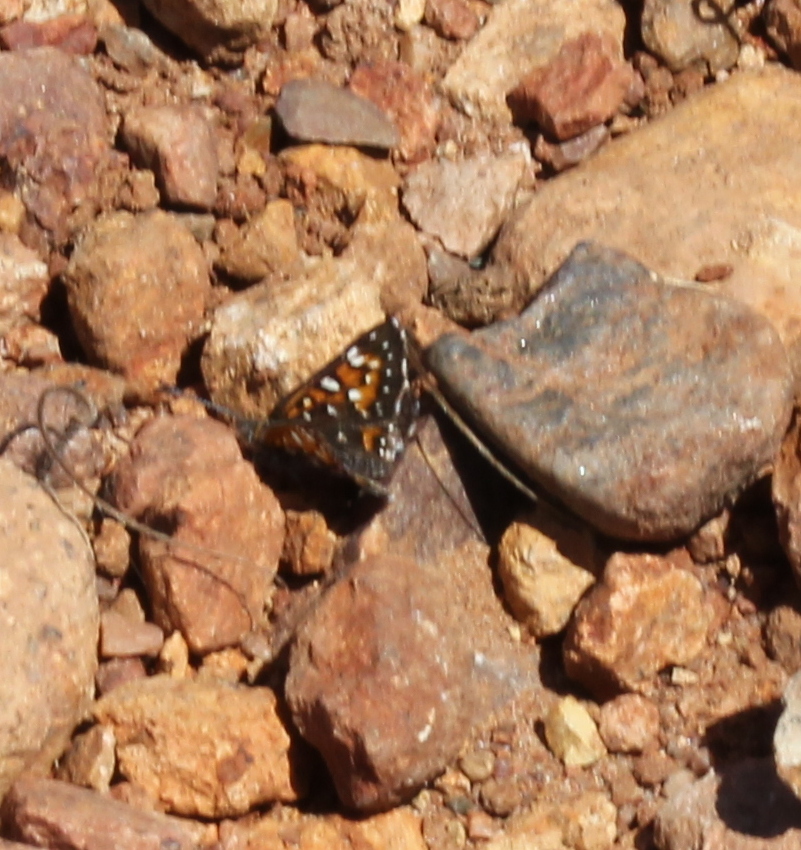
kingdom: Animalia
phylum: Arthropoda
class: Insecta
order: Lepidoptera
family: Riodinidae
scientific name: Riodinidae
